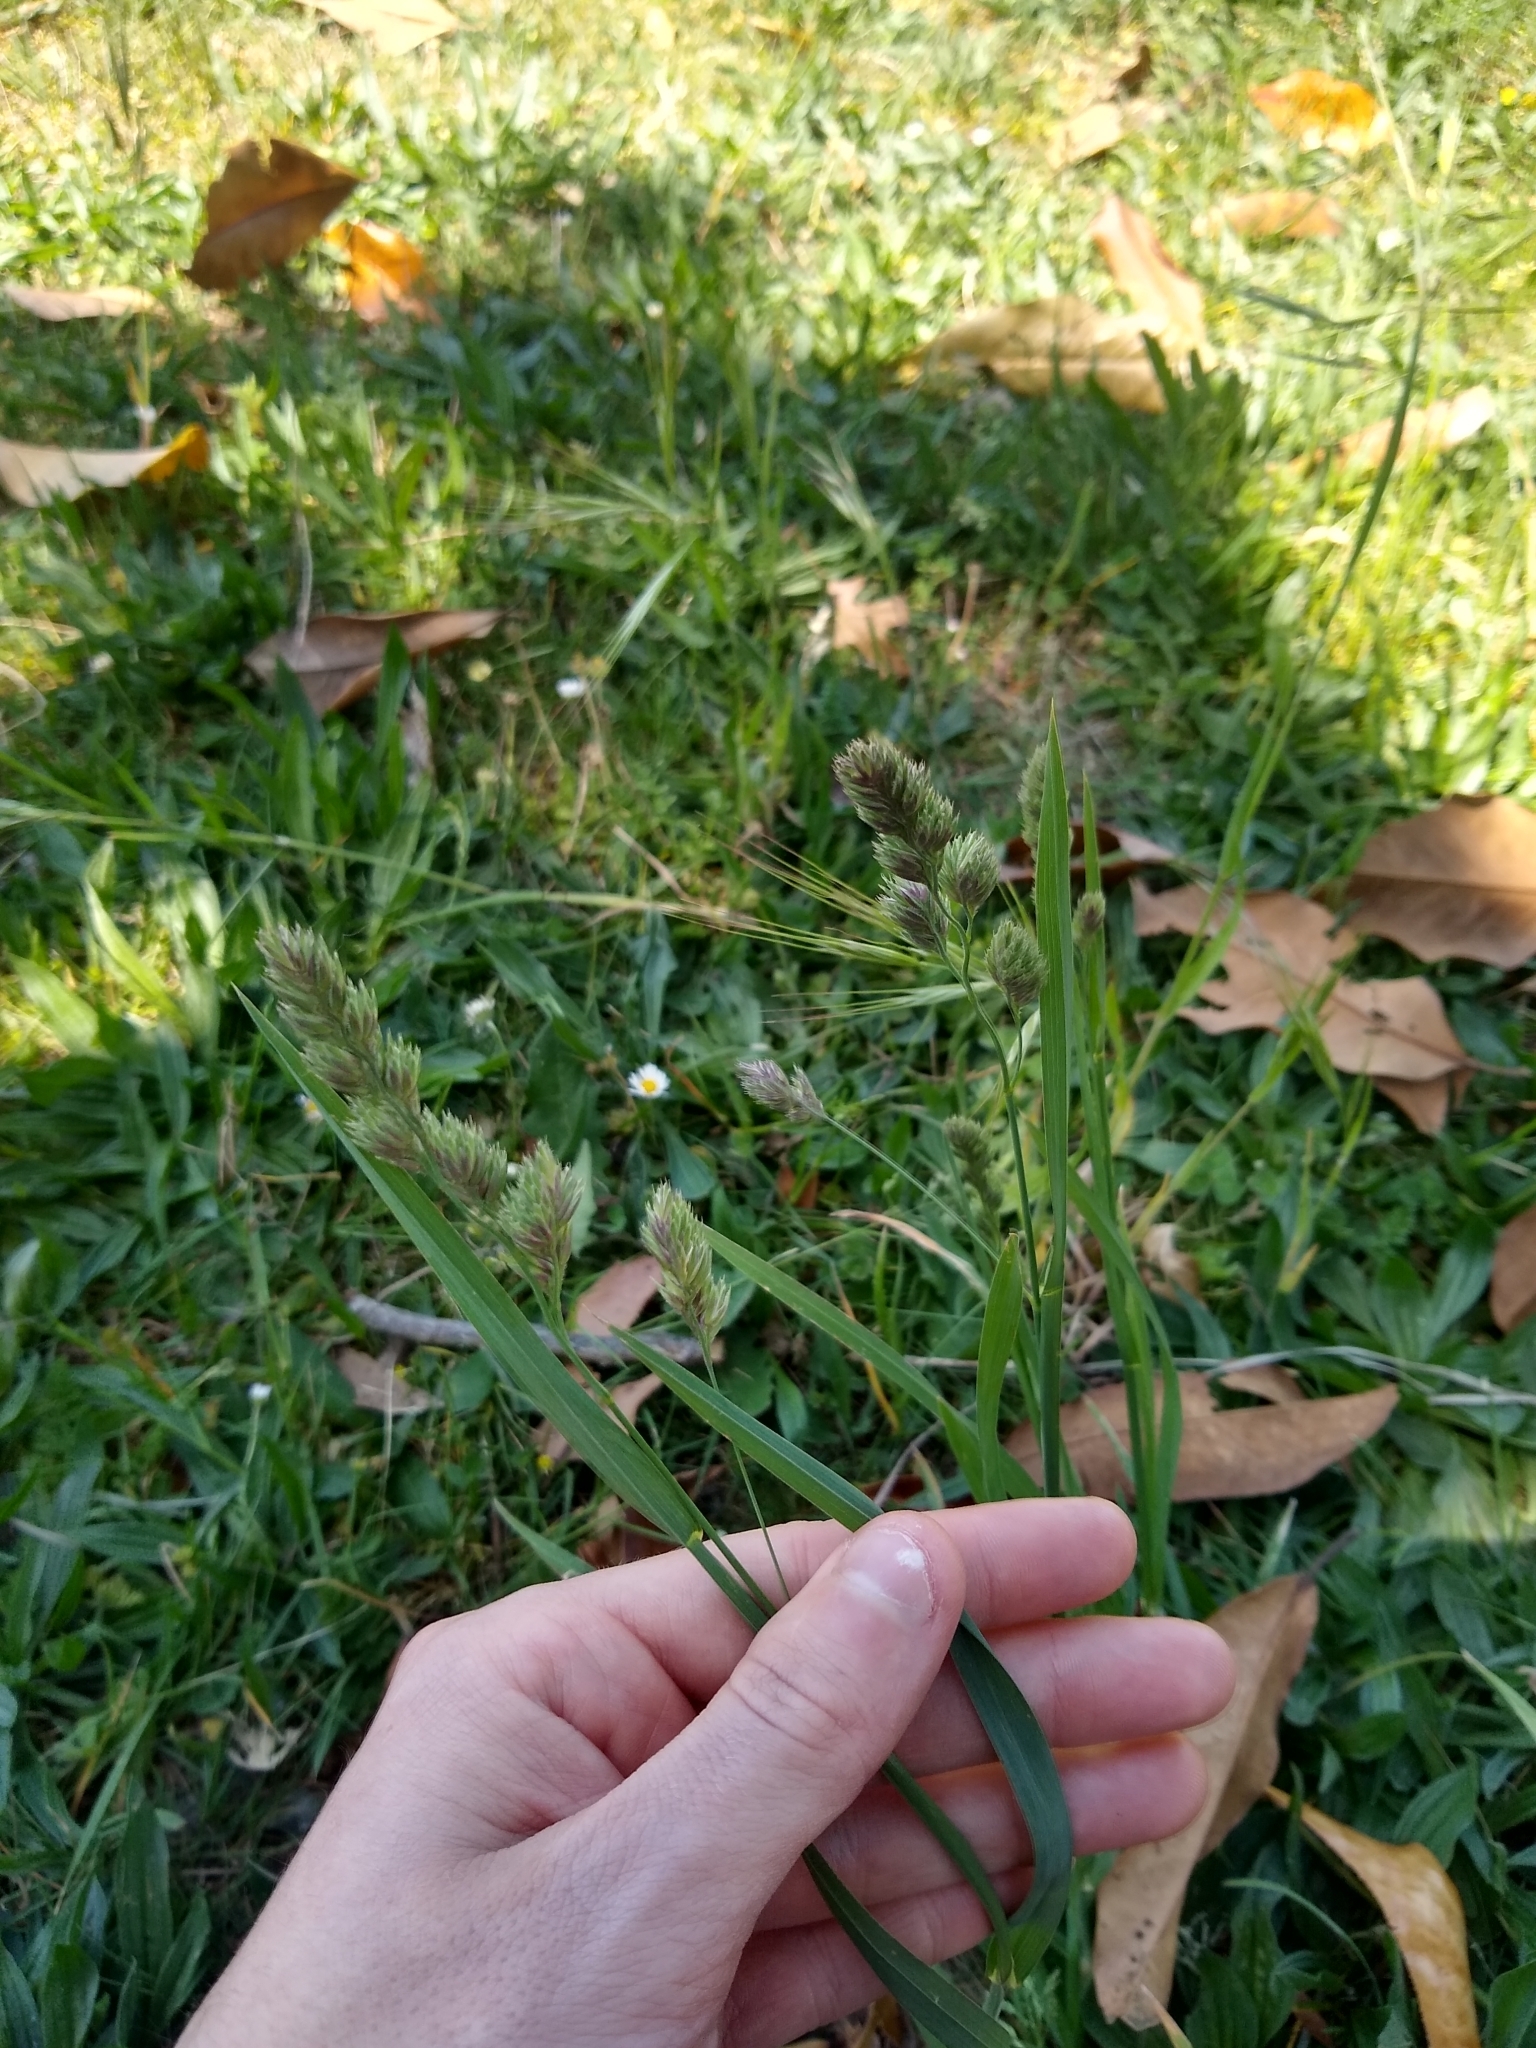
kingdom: Plantae
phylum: Tracheophyta
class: Liliopsida
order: Poales
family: Poaceae
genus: Dactylis
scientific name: Dactylis glomerata
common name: Orchardgrass
